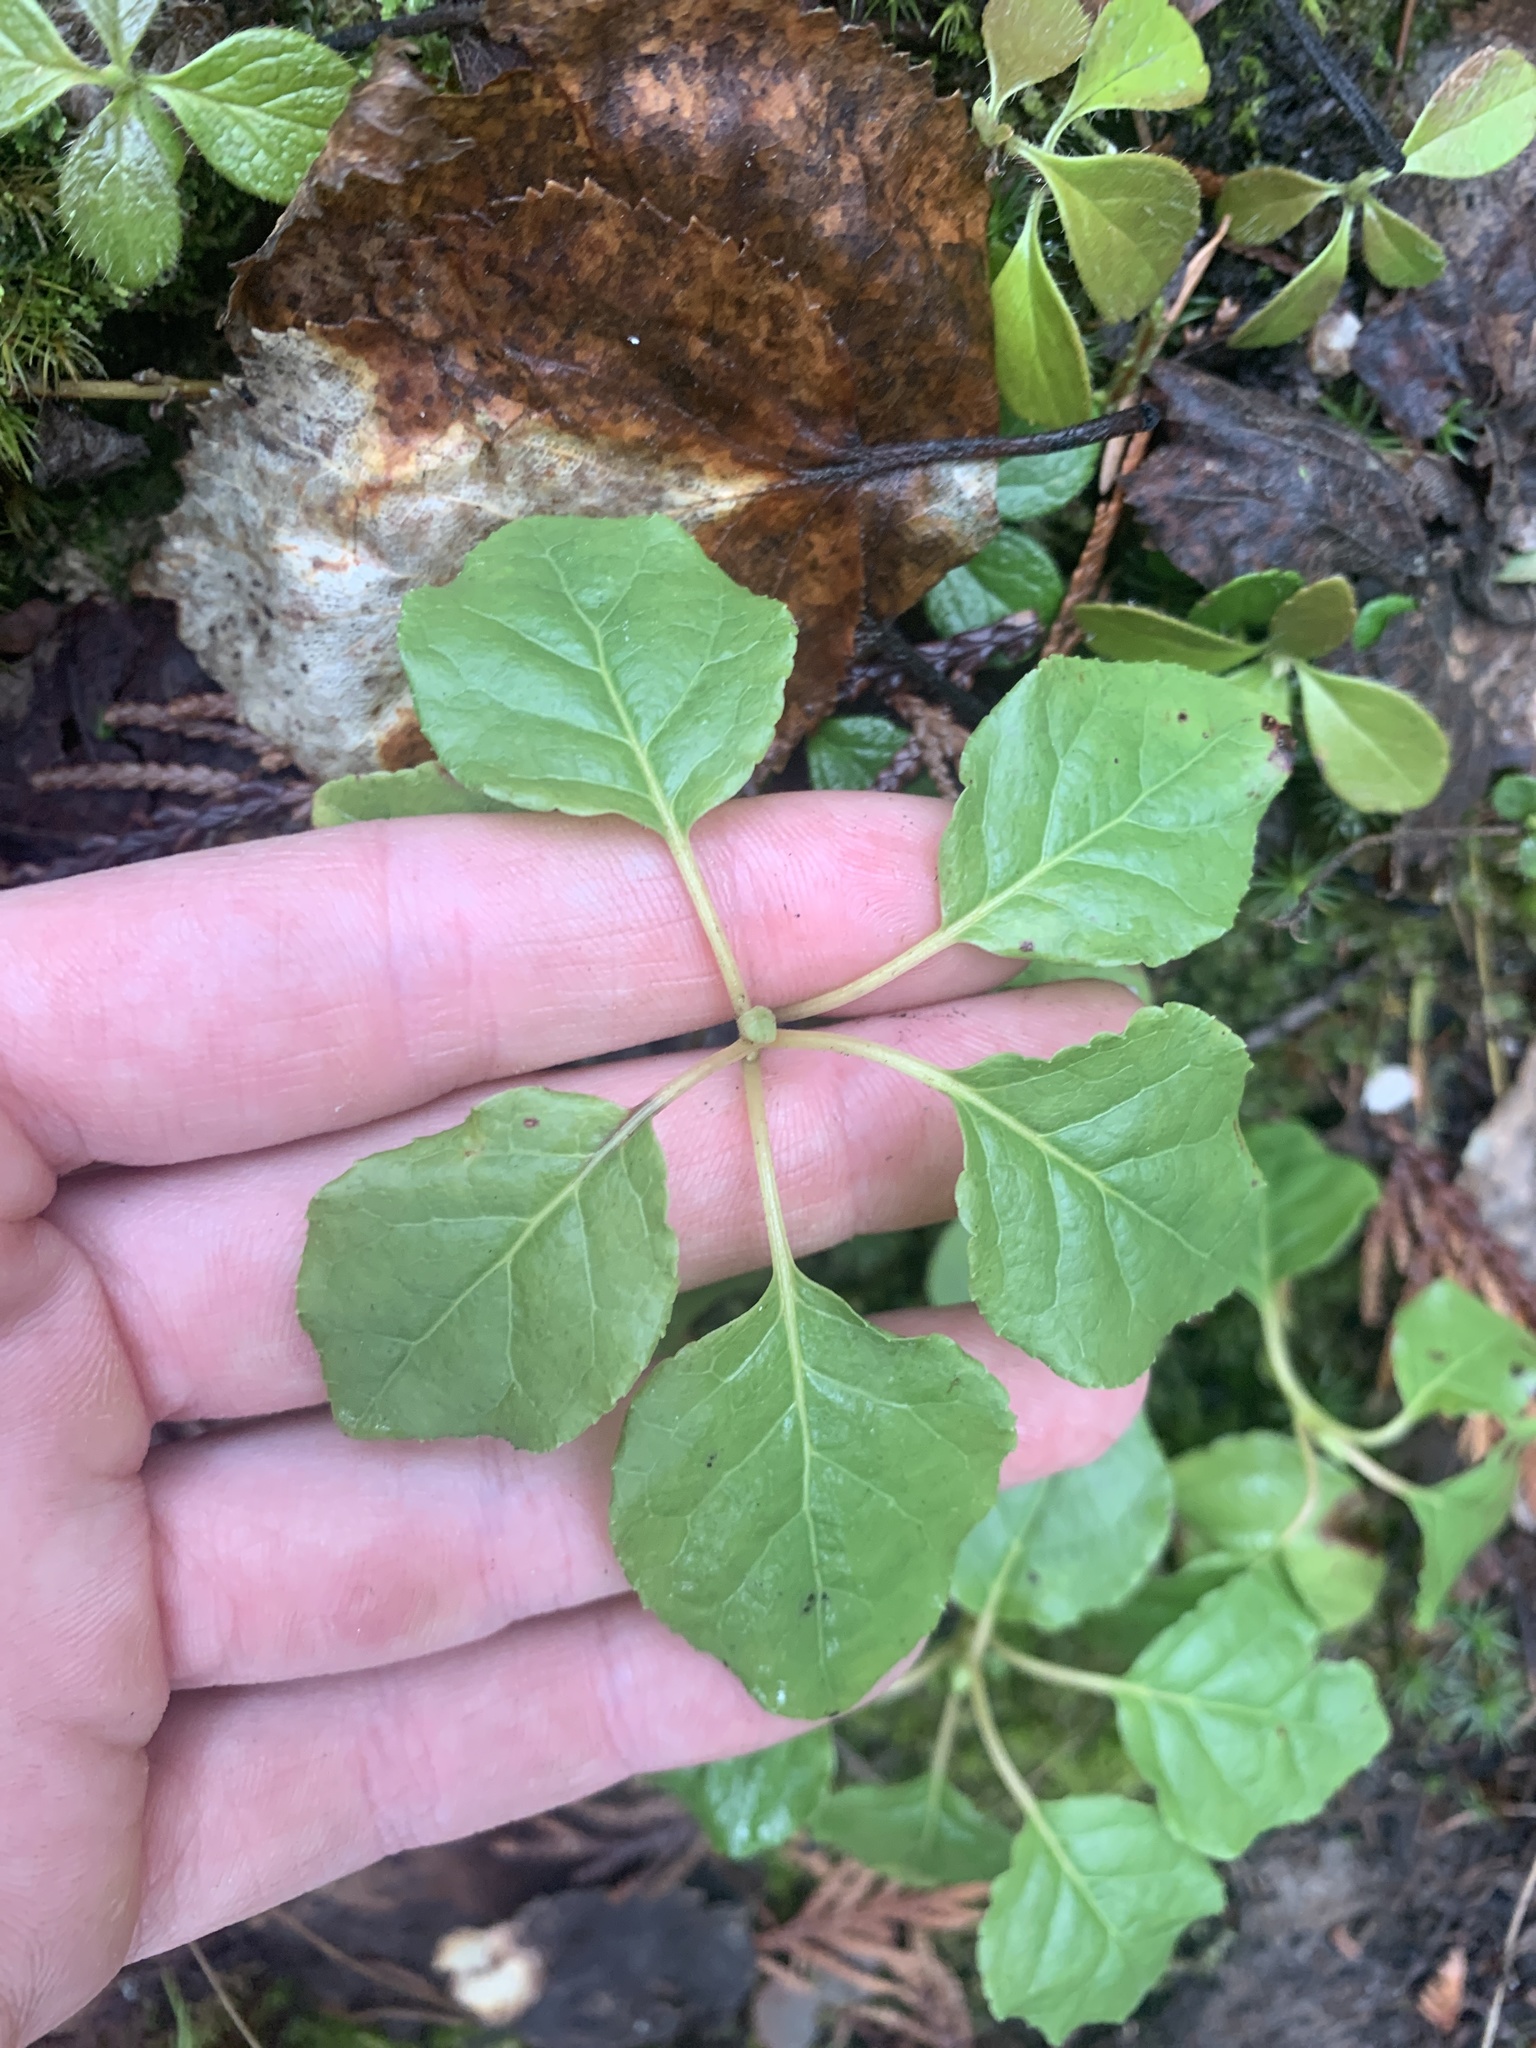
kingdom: Plantae
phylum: Tracheophyta
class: Magnoliopsida
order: Ericales
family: Ericaceae
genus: Orthilia
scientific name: Orthilia secunda
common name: One-sided orthilia
